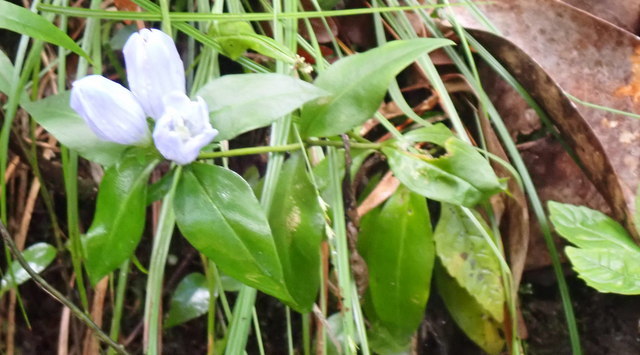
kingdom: Plantae
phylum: Tracheophyta
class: Magnoliopsida
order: Gentianales
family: Gentianaceae
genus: Gentiana
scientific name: Gentiana saponaria
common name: Soapwort gentian
